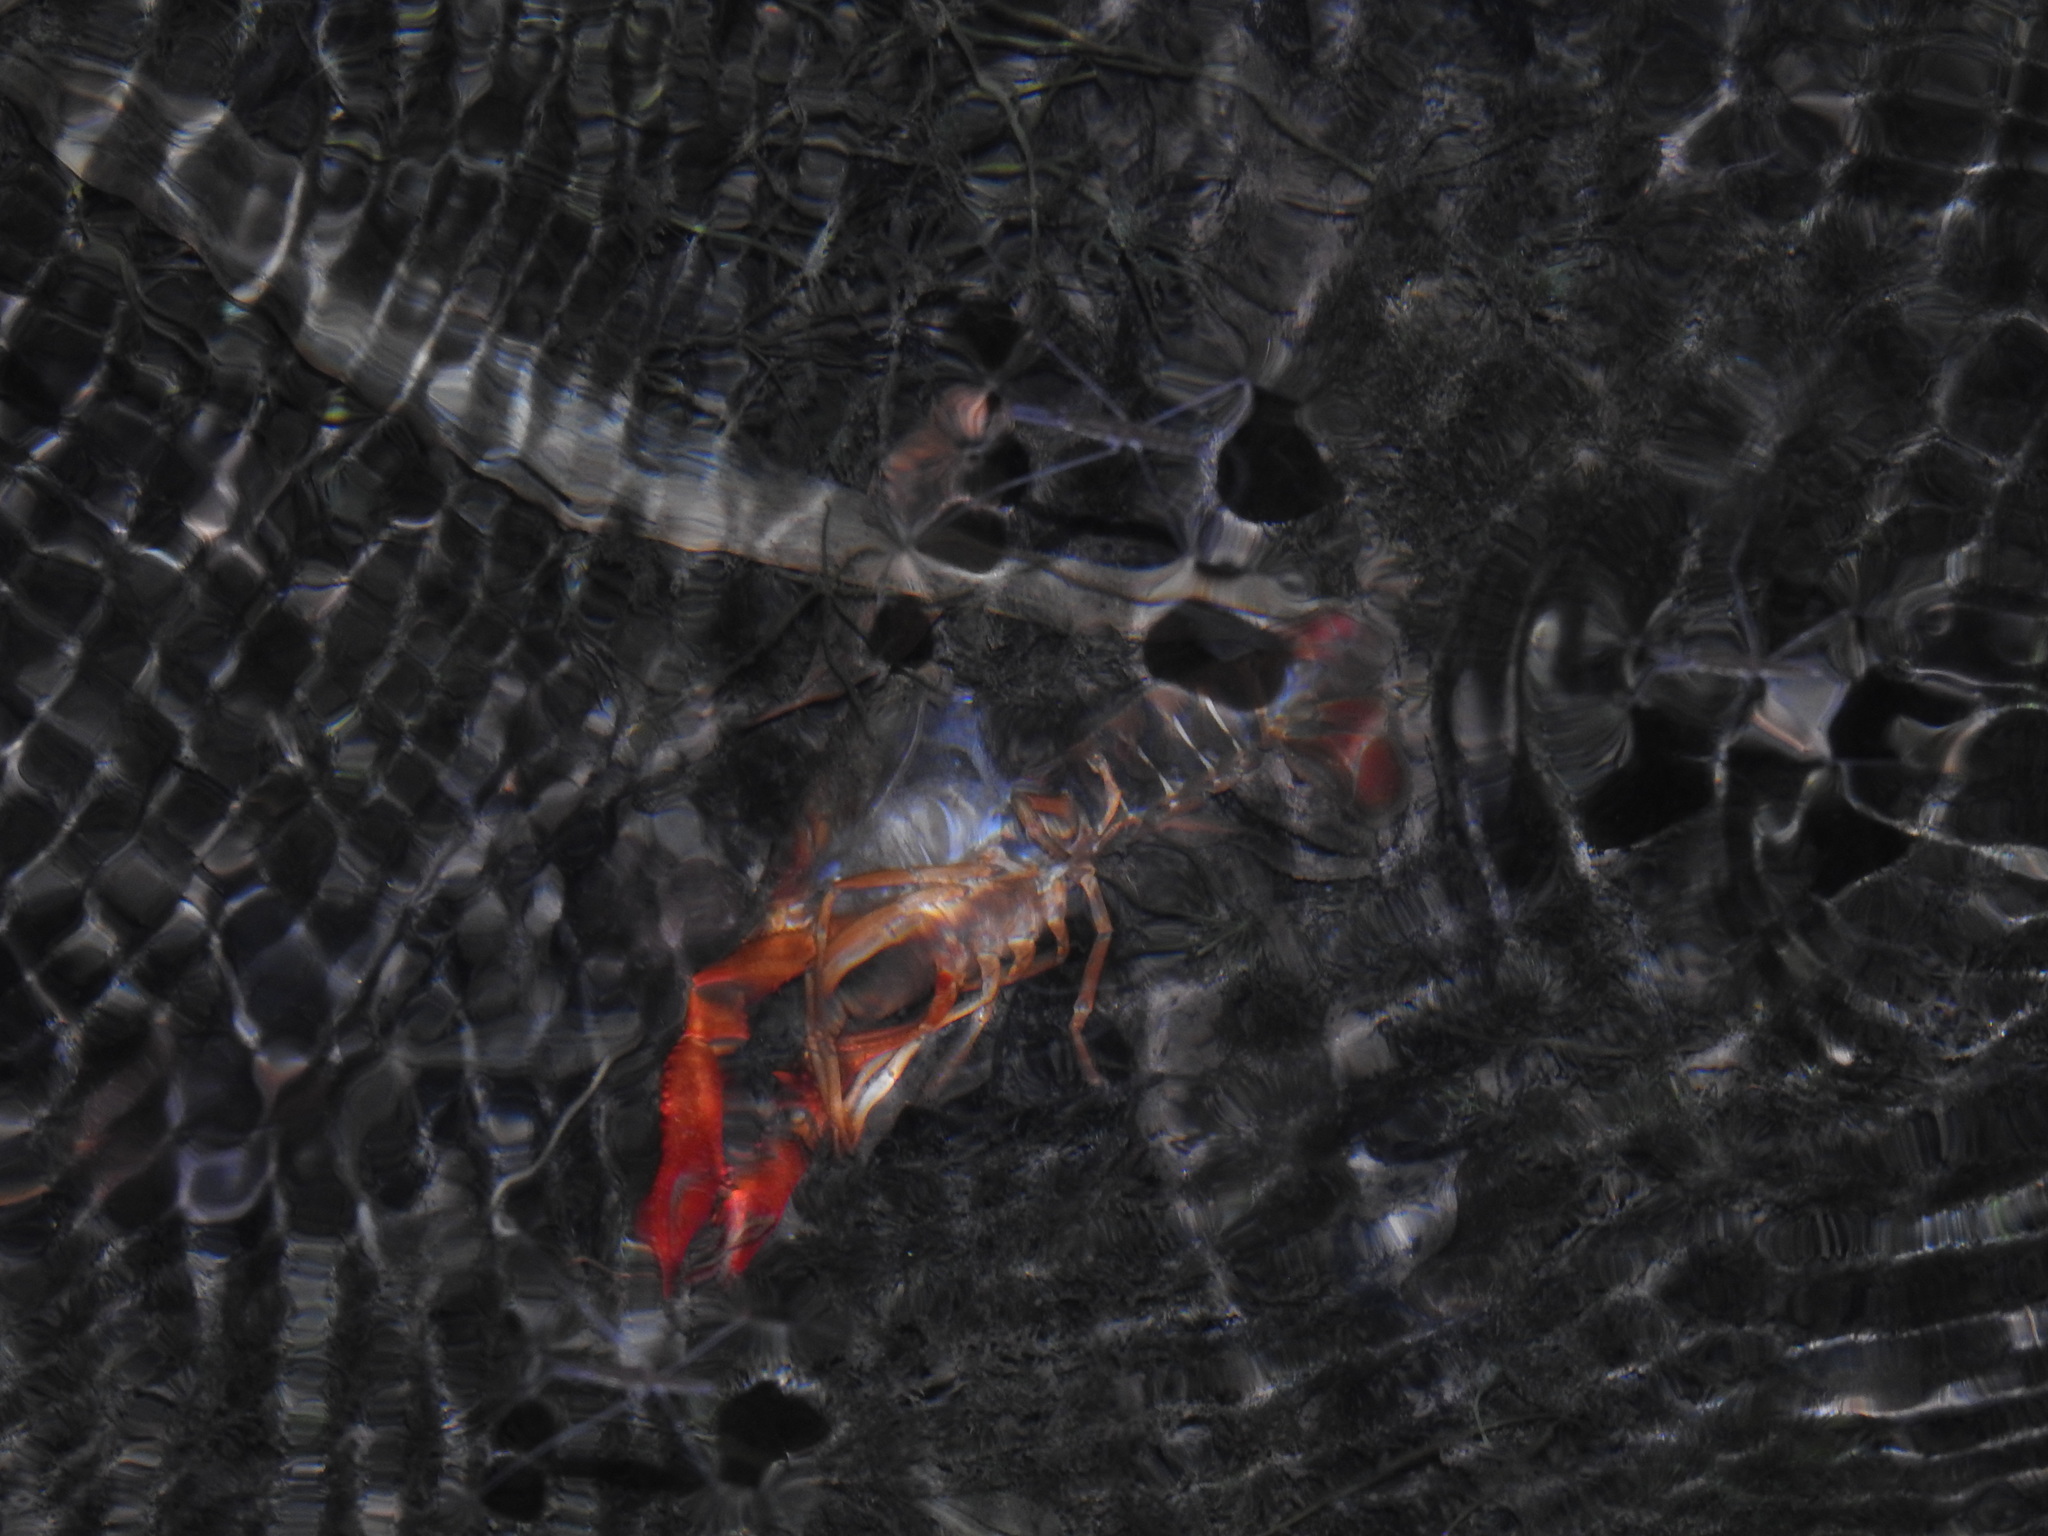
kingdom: Animalia
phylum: Arthropoda
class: Malacostraca
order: Decapoda
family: Cambaridae
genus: Procambarus
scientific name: Procambarus clarkii
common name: Red swamp crayfish
